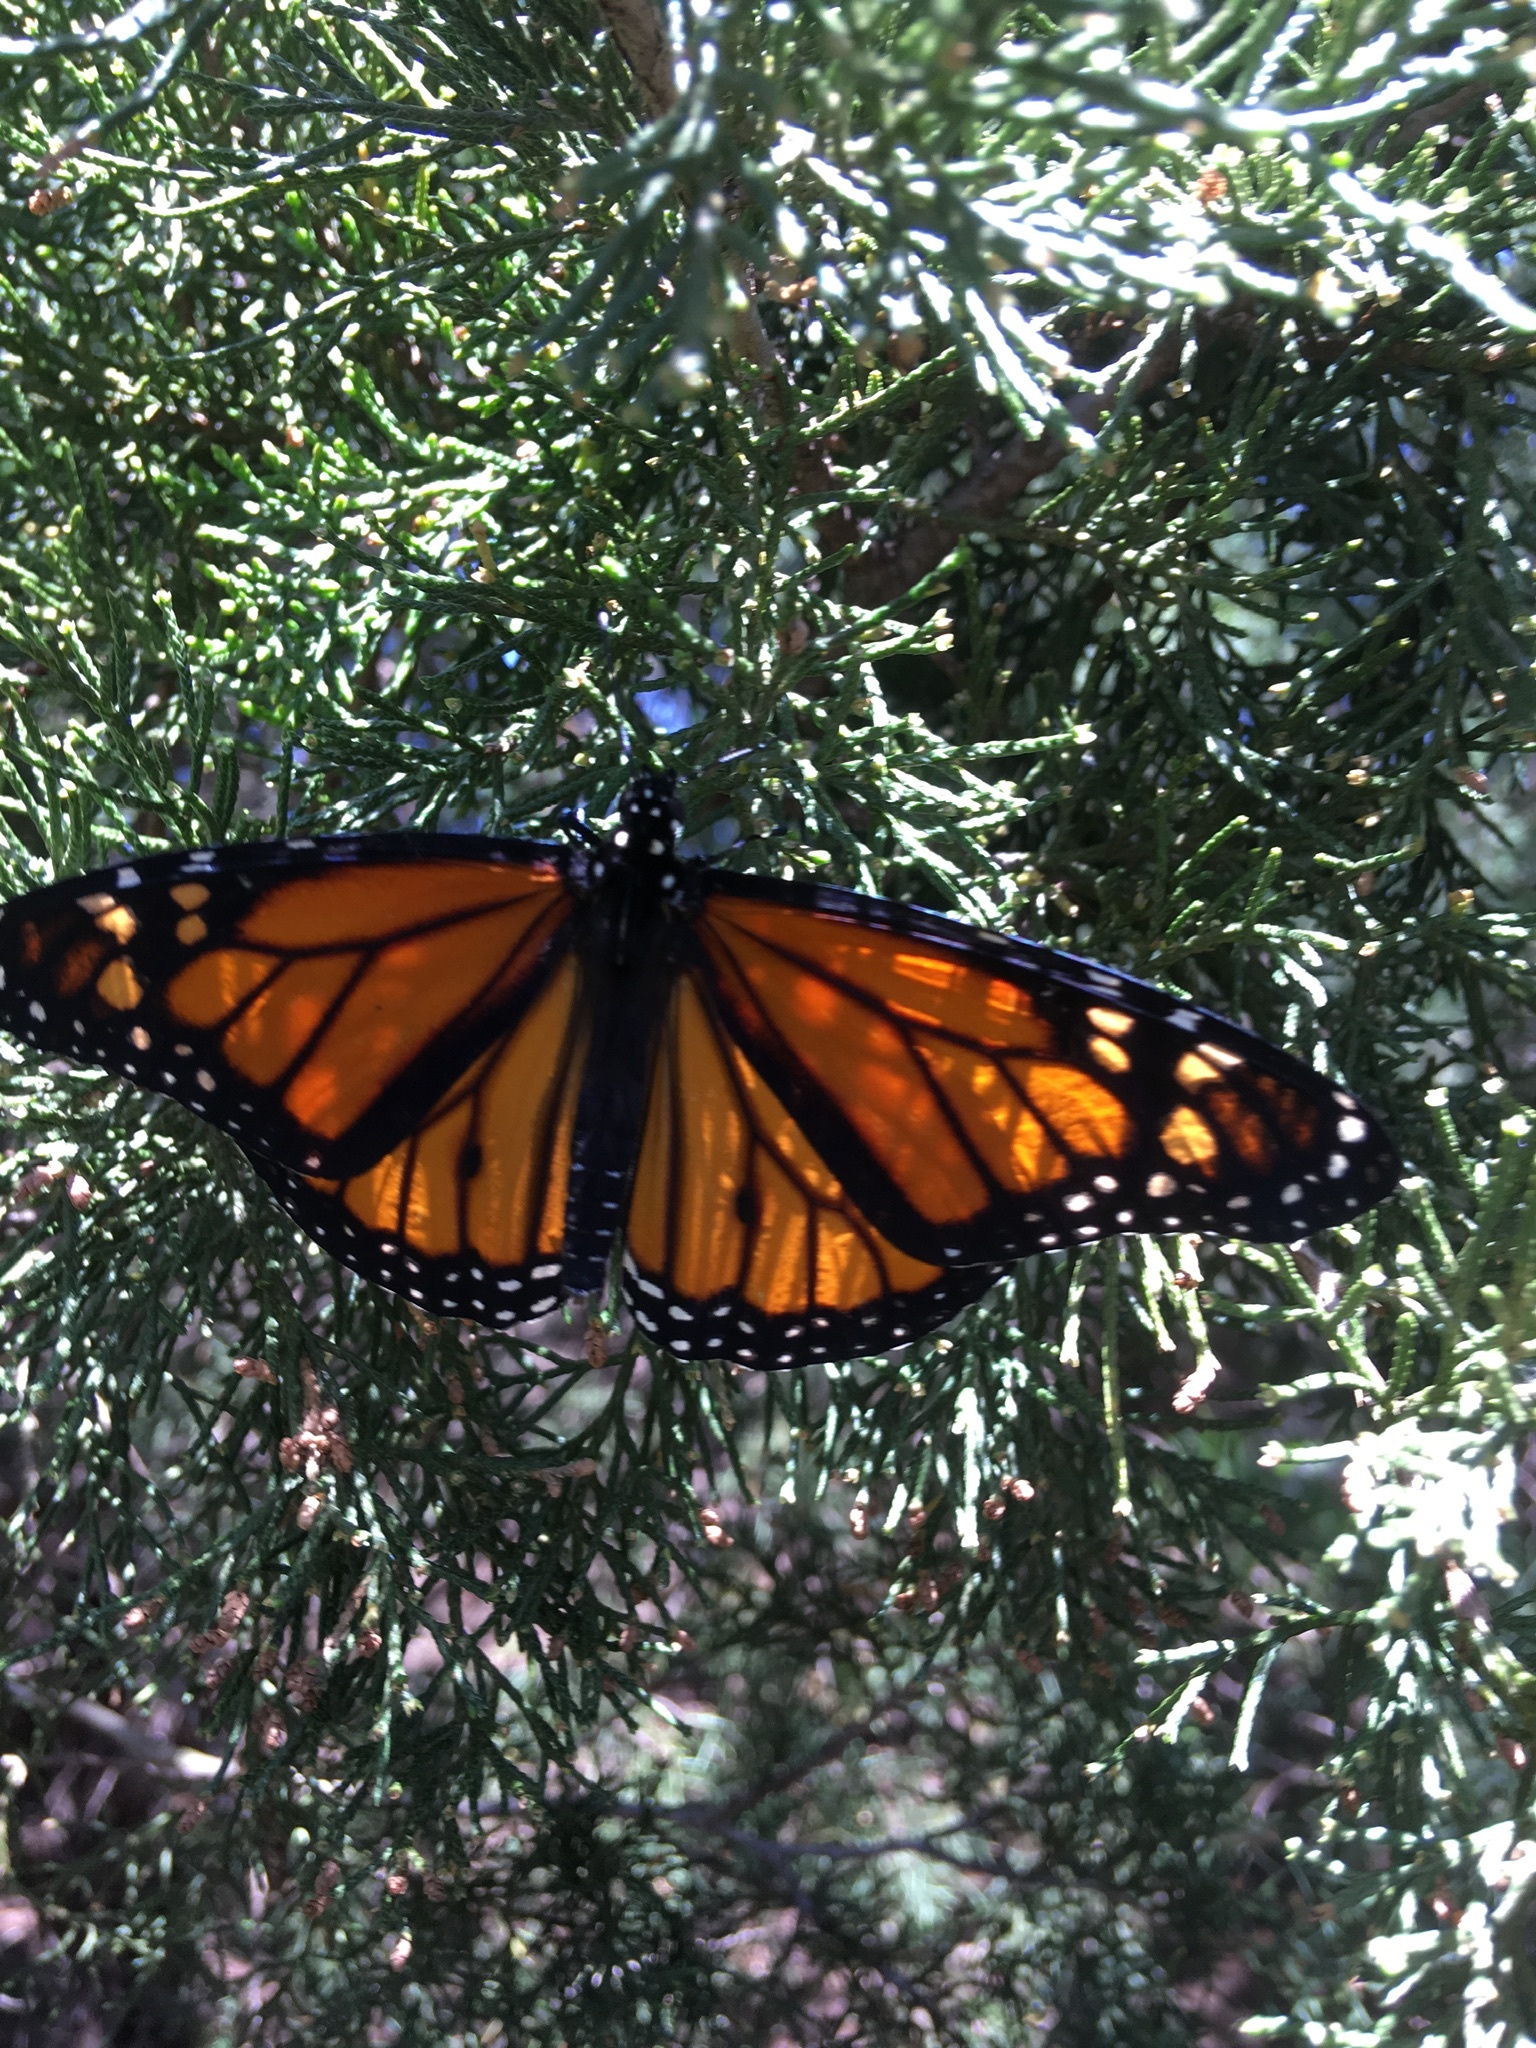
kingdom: Animalia
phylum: Arthropoda
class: Insecta
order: Lepidoptera
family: Nymphalidae
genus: Danaus
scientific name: Danaus plexippus
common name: Monarch
